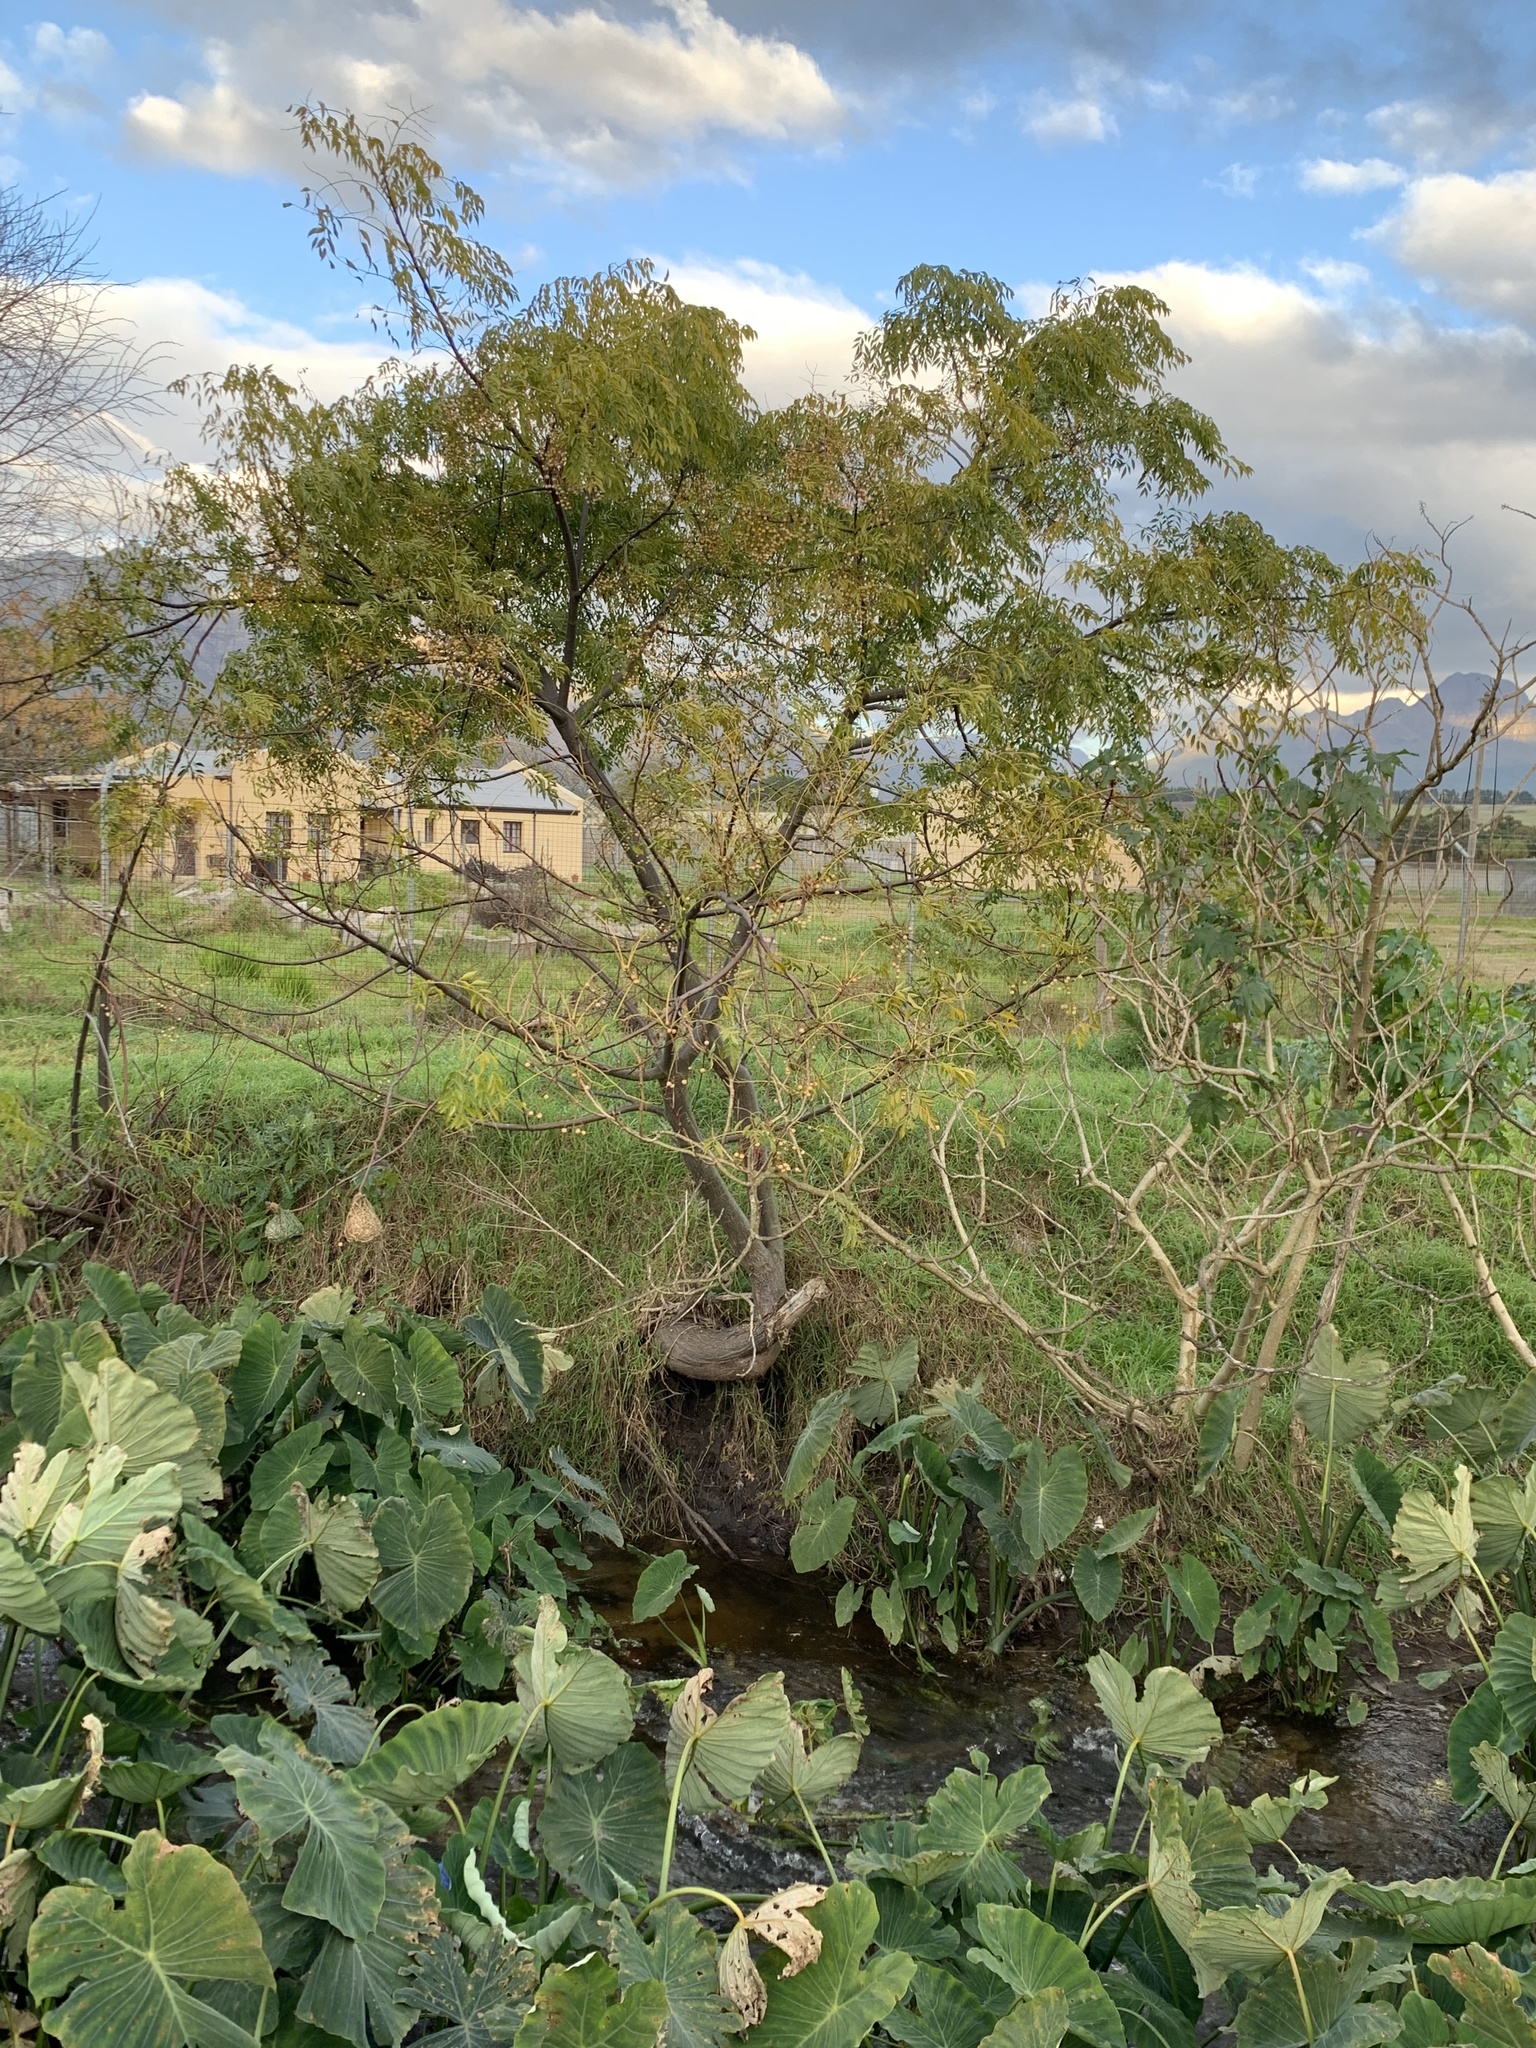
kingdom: Plantae
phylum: Tracheophyta
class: Magnoliopsida
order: Sapindales
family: Meliaceae
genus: Melia
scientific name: Melia azedarach
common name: Chinaberrytree
